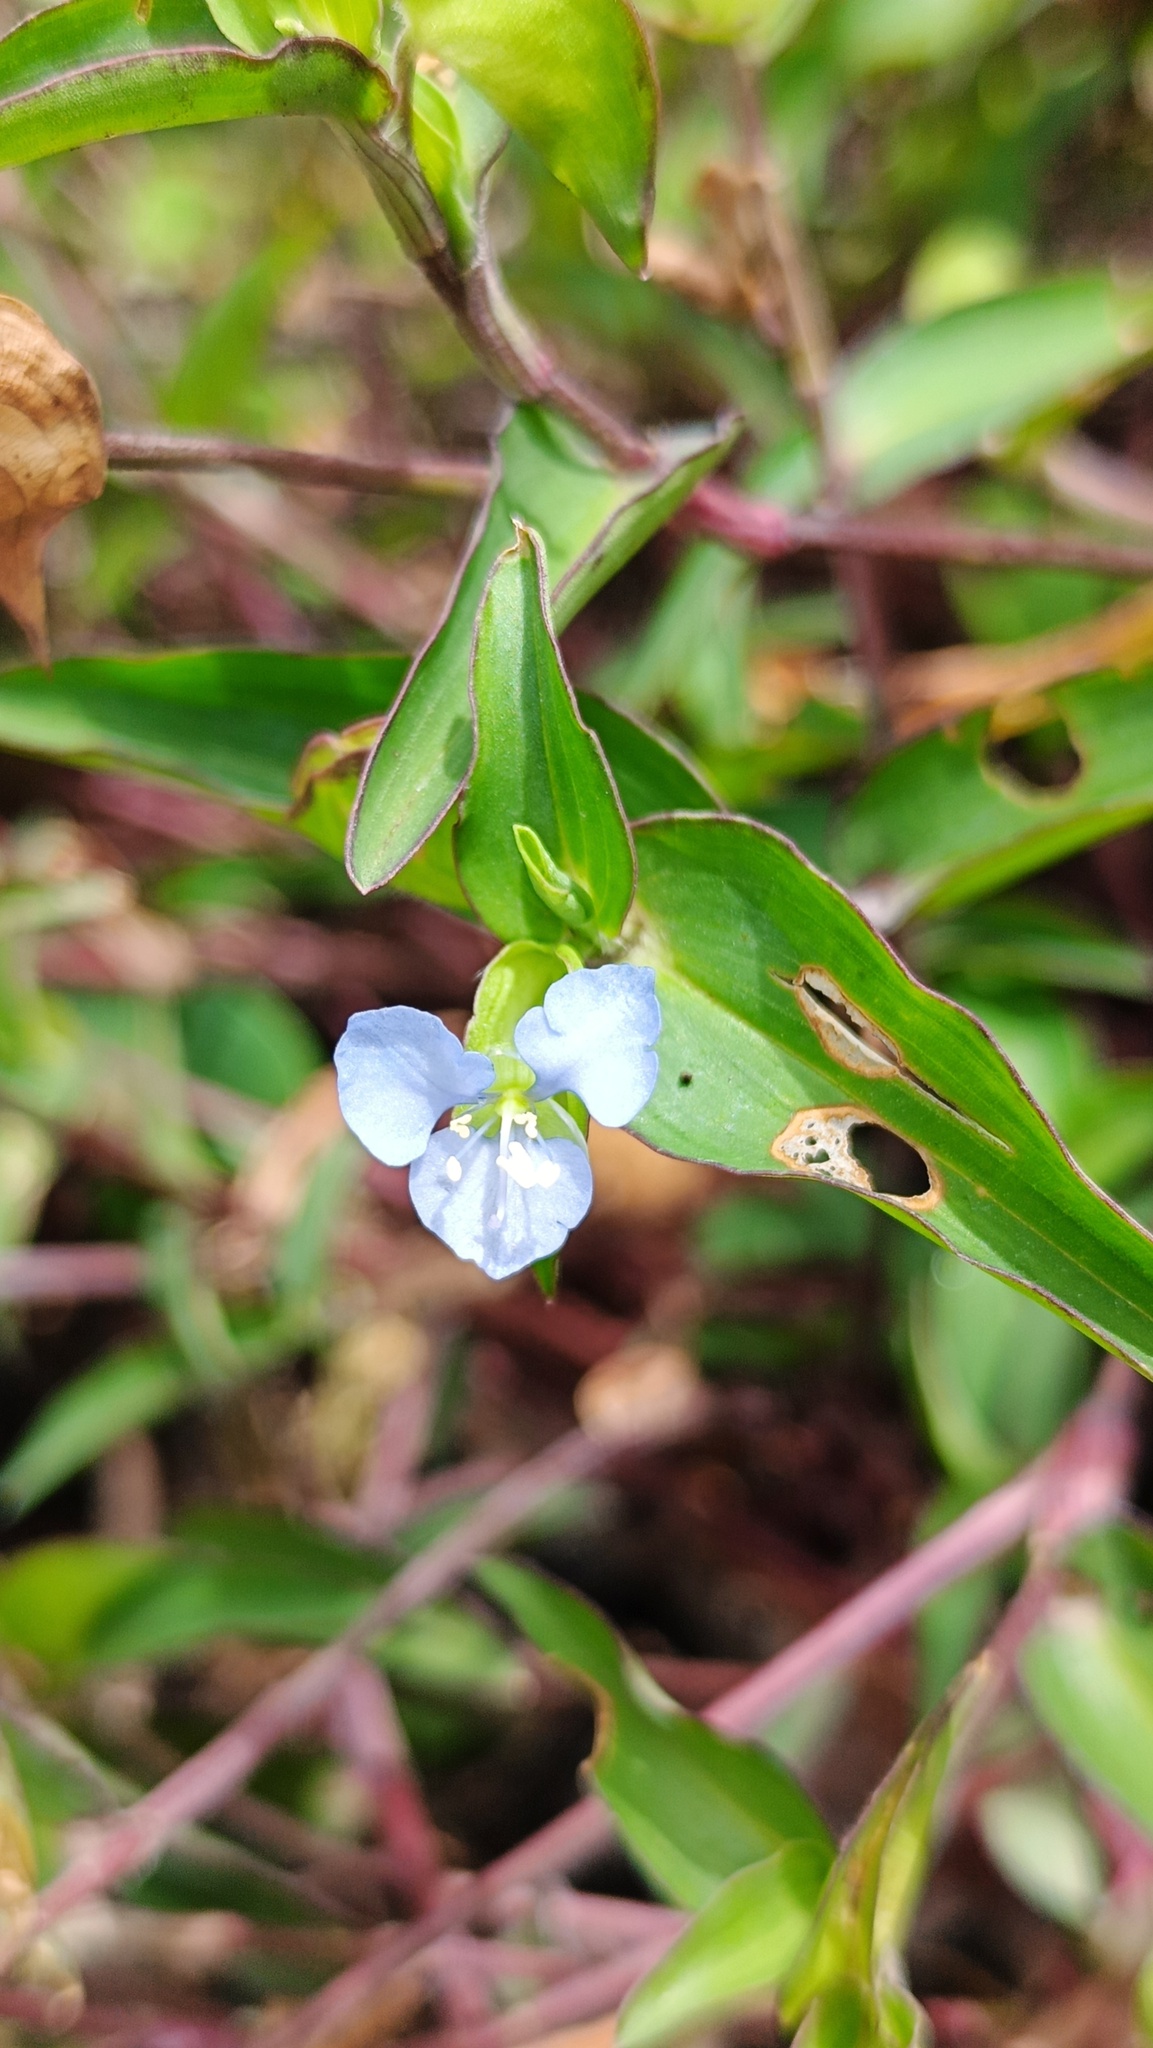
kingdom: Plantae
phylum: Tracheophyta
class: Liliopsida
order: Commelinales
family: Commelinaceae
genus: Commelina
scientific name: Commelina diffusa
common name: Climbing dayflower
